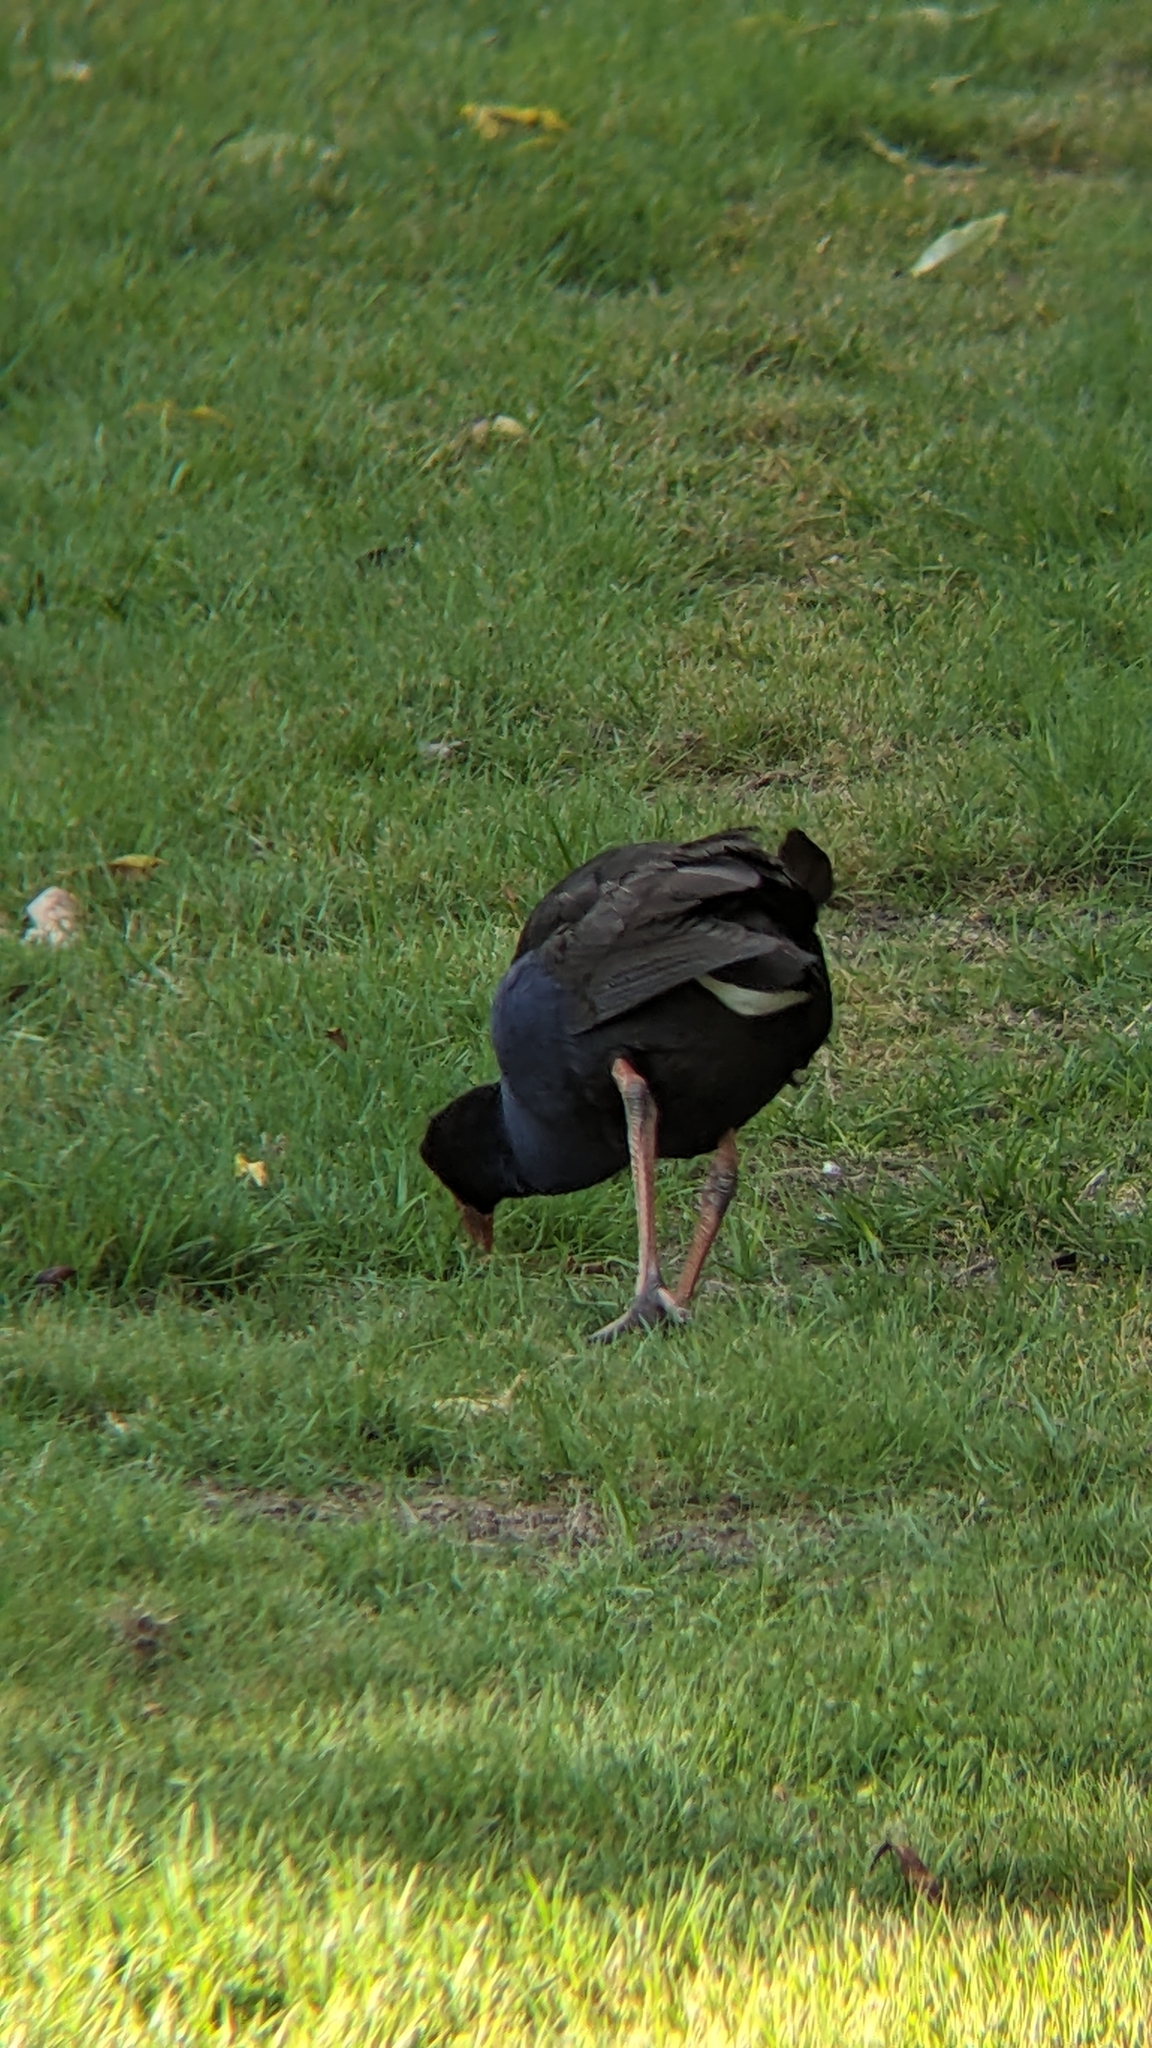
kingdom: Animalia
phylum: Chordata
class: Aves
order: Gruiformes
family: Rallidae
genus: Porphyrio
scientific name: Porphyrio melanotus
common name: Australasian swamphen
